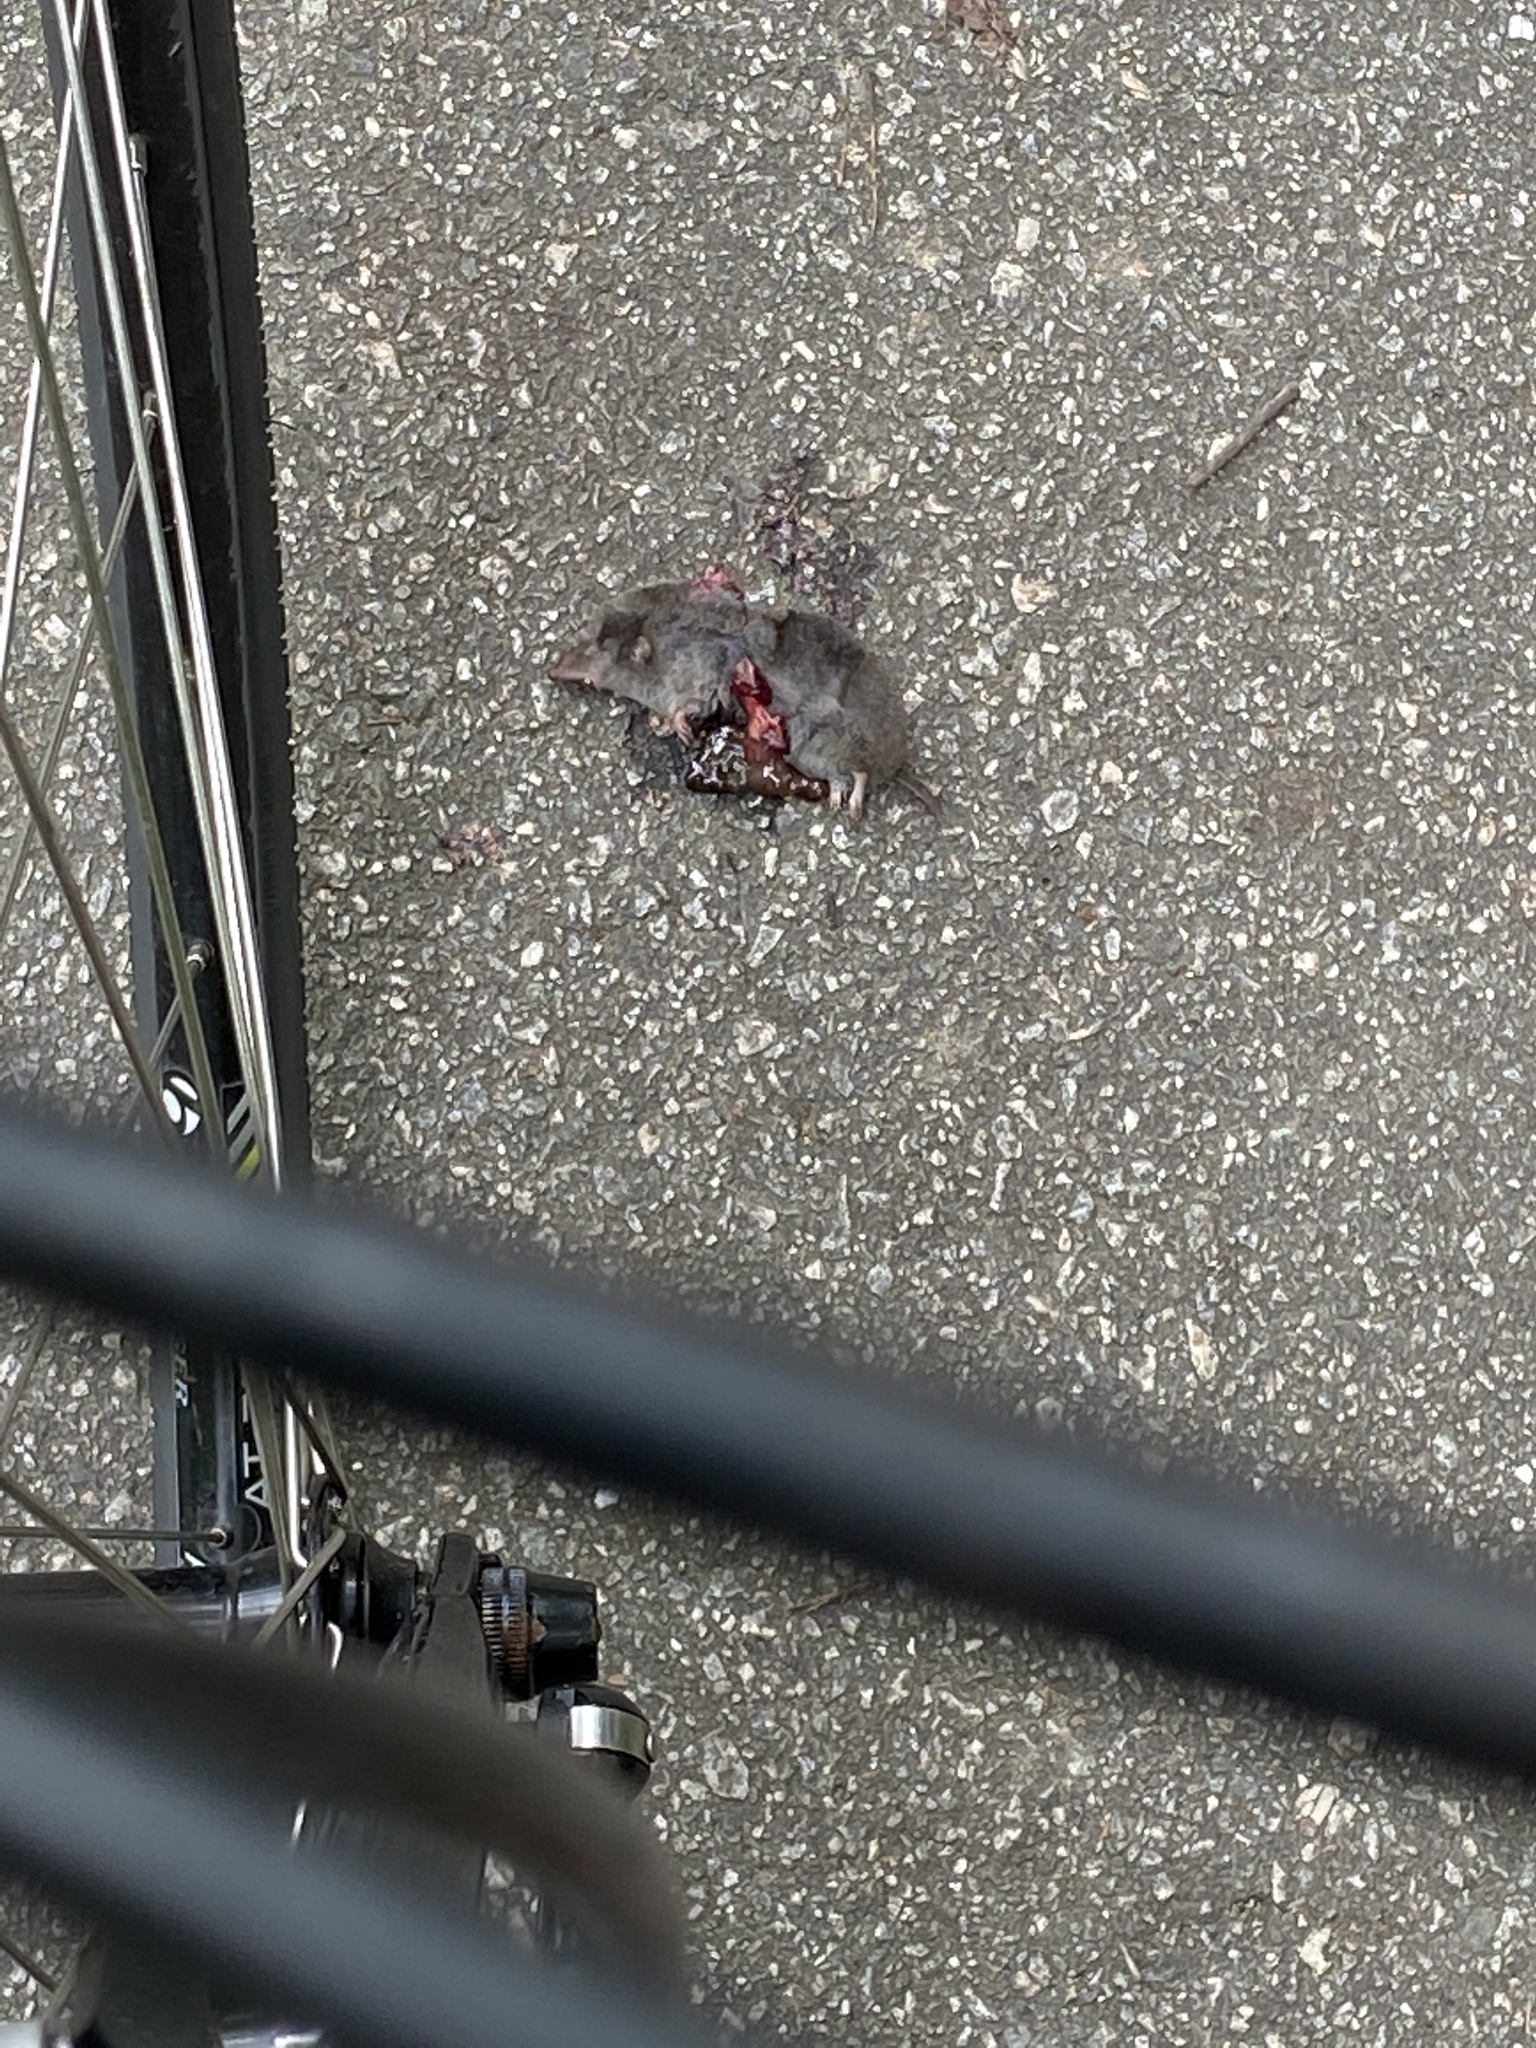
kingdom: Animalia
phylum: Chordata
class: Mammalia
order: Soricomorpha
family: Soricidae
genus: Blarina
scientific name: Blarina carolinensis
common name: Southern short-tailed shrew
